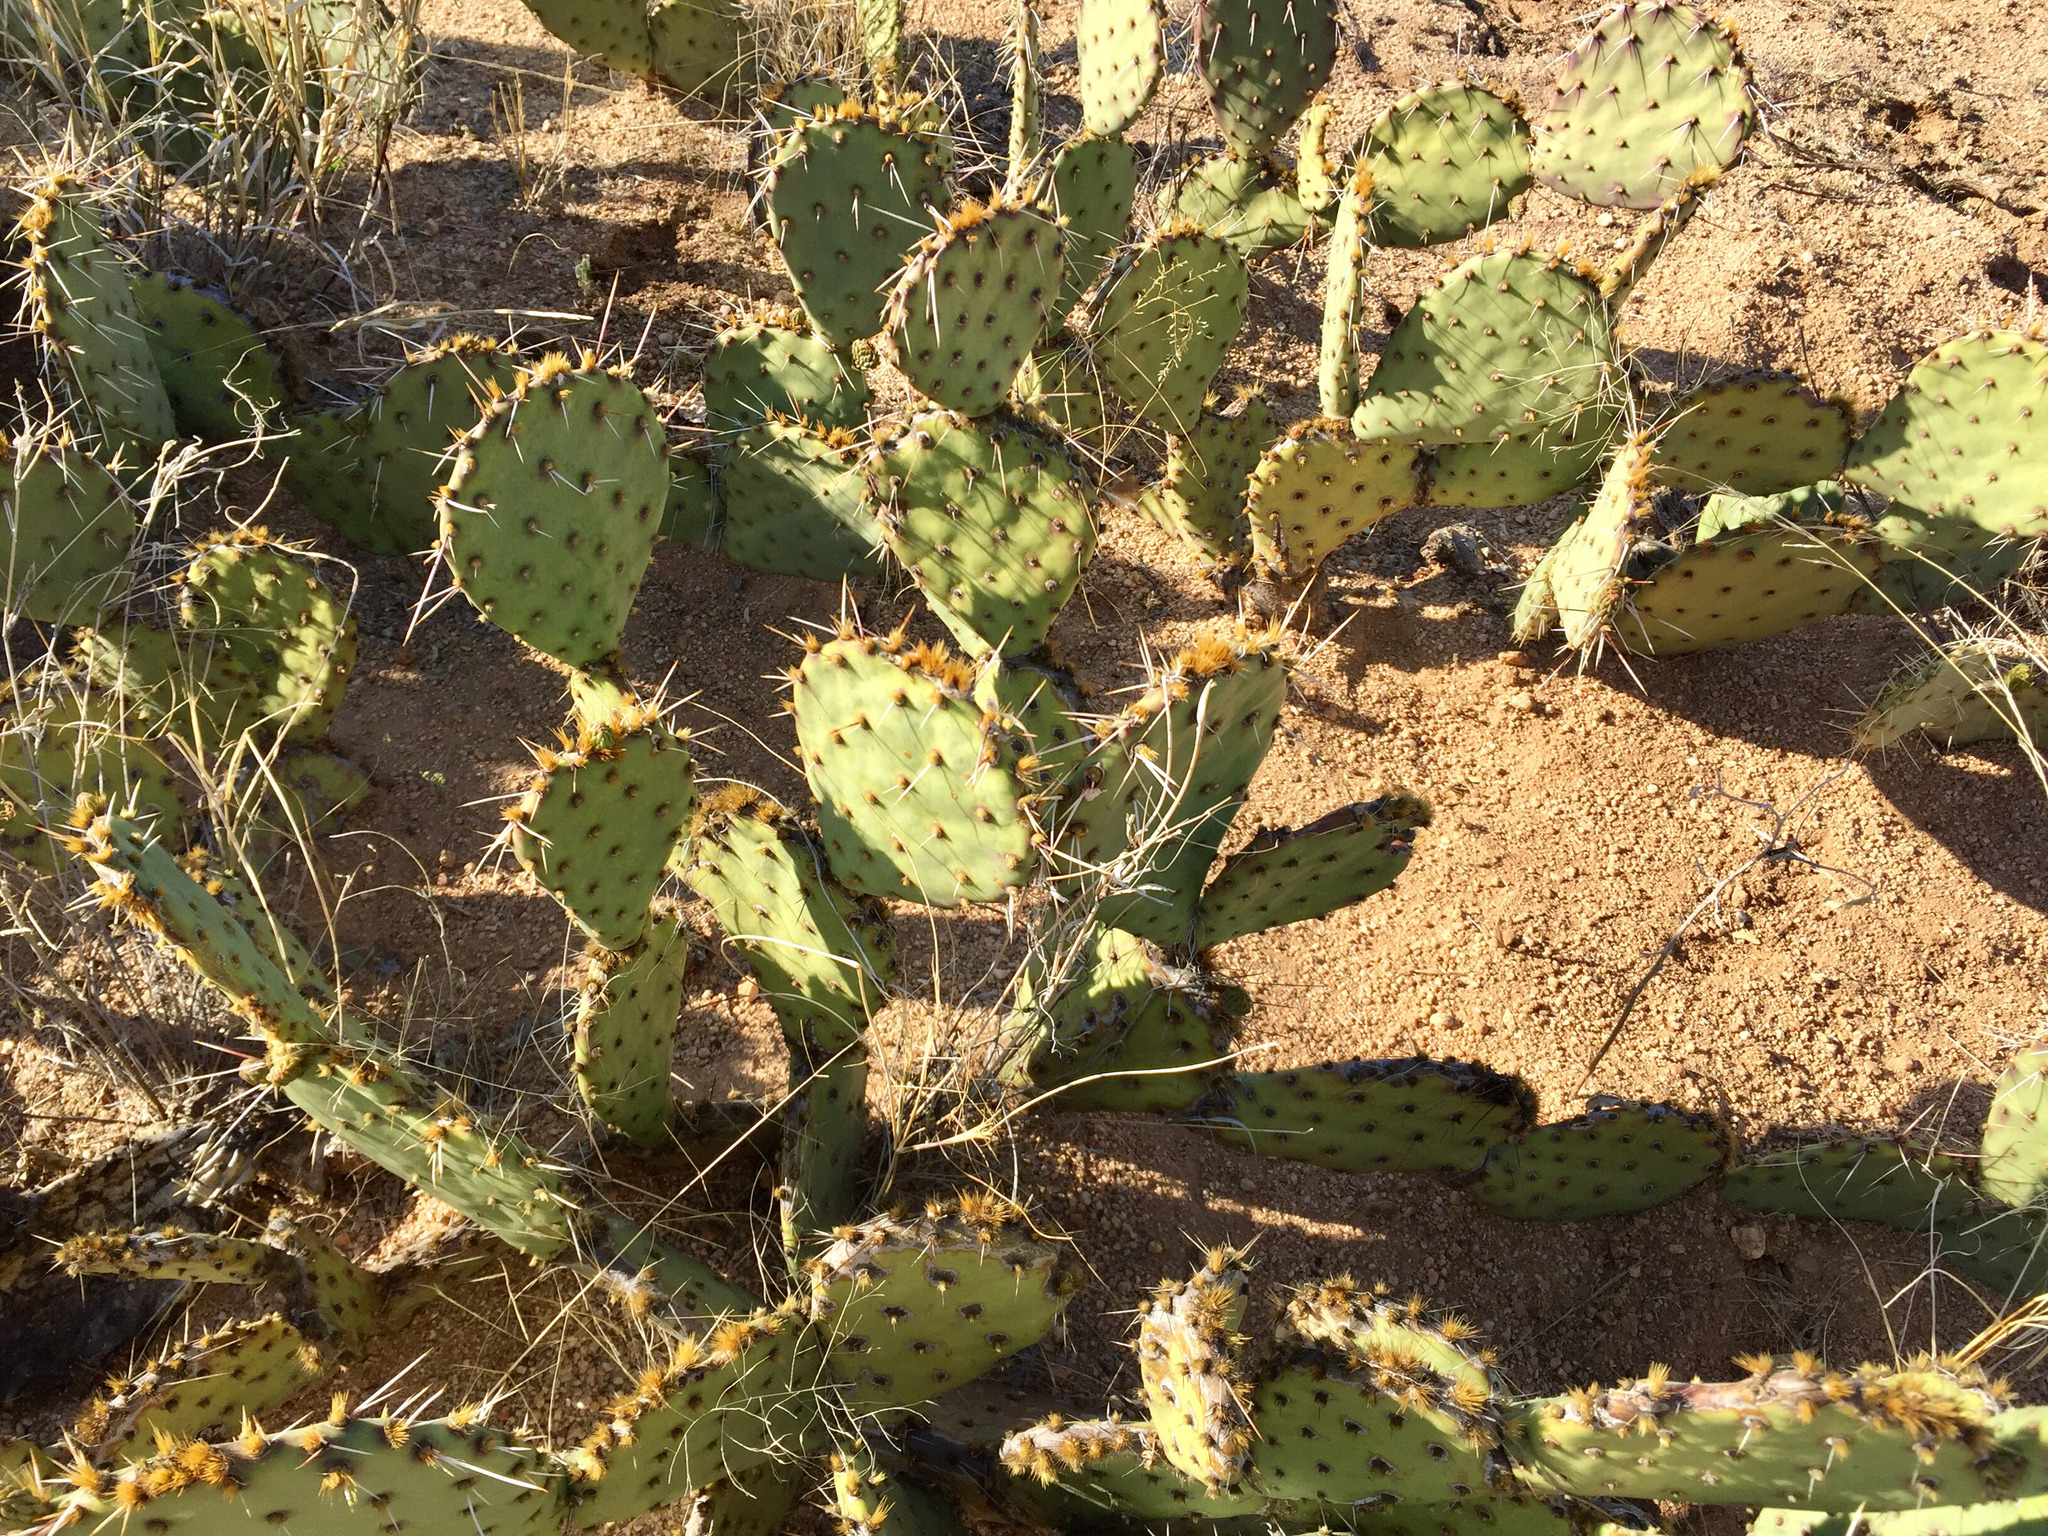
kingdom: Plantae
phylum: Tracheophyta
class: Magnoliopsida
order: Caryophyllales
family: Cactaceae
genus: Opuntia
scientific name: Opuntia engelmannii
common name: Cactus-apple
